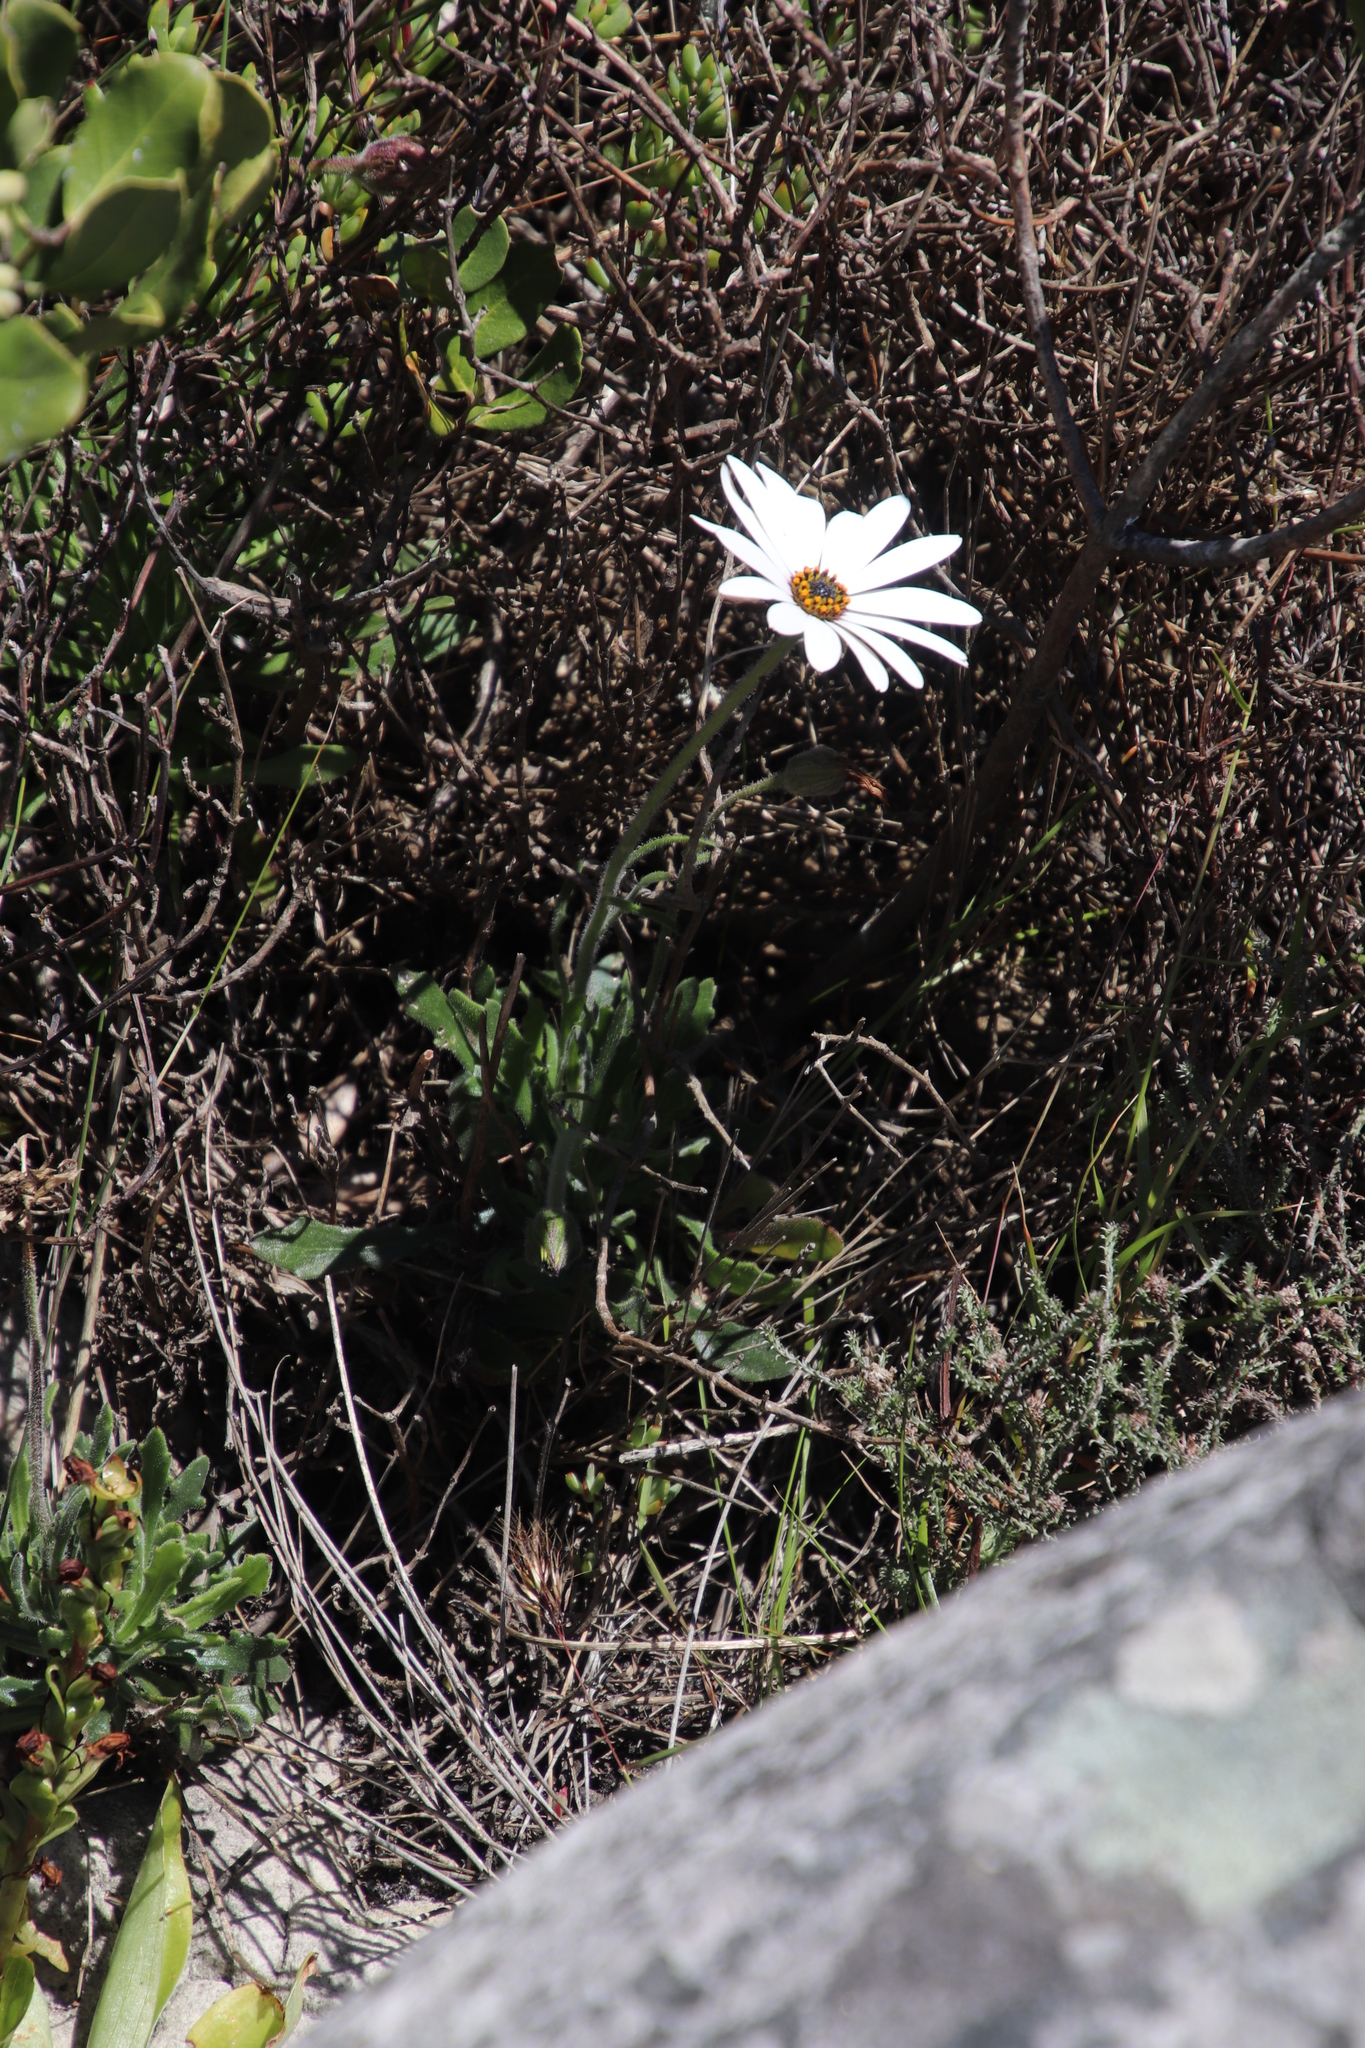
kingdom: Plantae
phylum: Tracheophyta
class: Magnoliopsida
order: Asterales
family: Asteraceae
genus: Dimorphotheca
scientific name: Dimorphotheca nudicaulis
